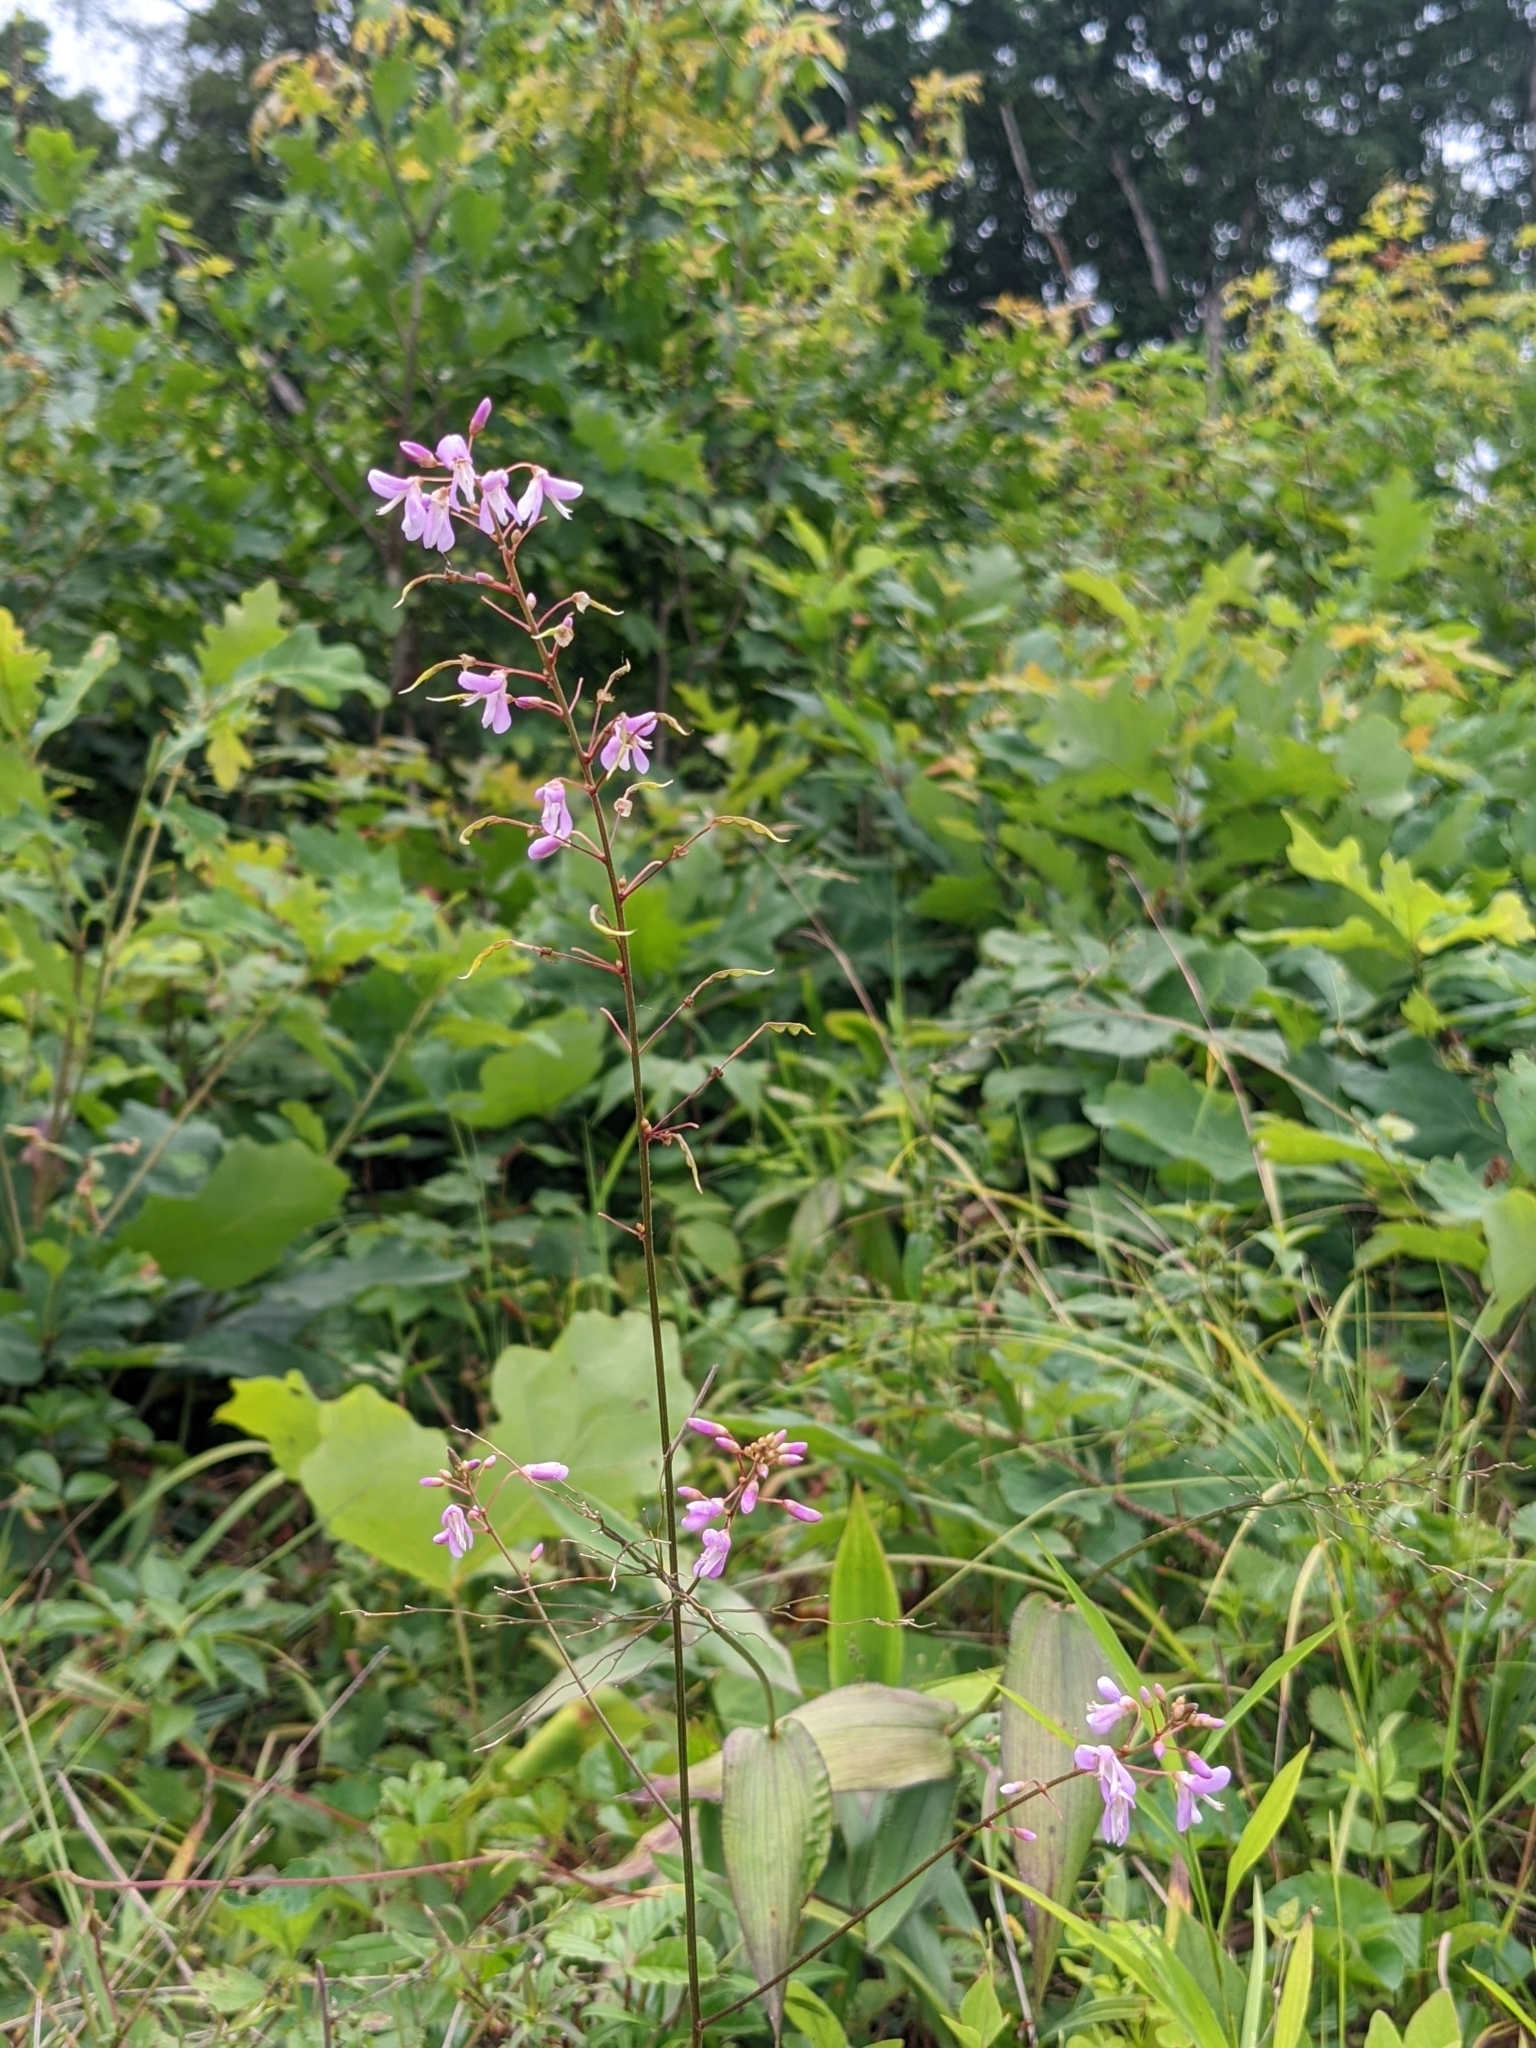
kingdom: Plantae
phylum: Tracheophyta
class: Magnoliopsida
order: Fabales
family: Fabaceae
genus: Hylodesmum
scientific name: Hylodesmum nudiflorum
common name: Bare-stemmed tick-trefoil
